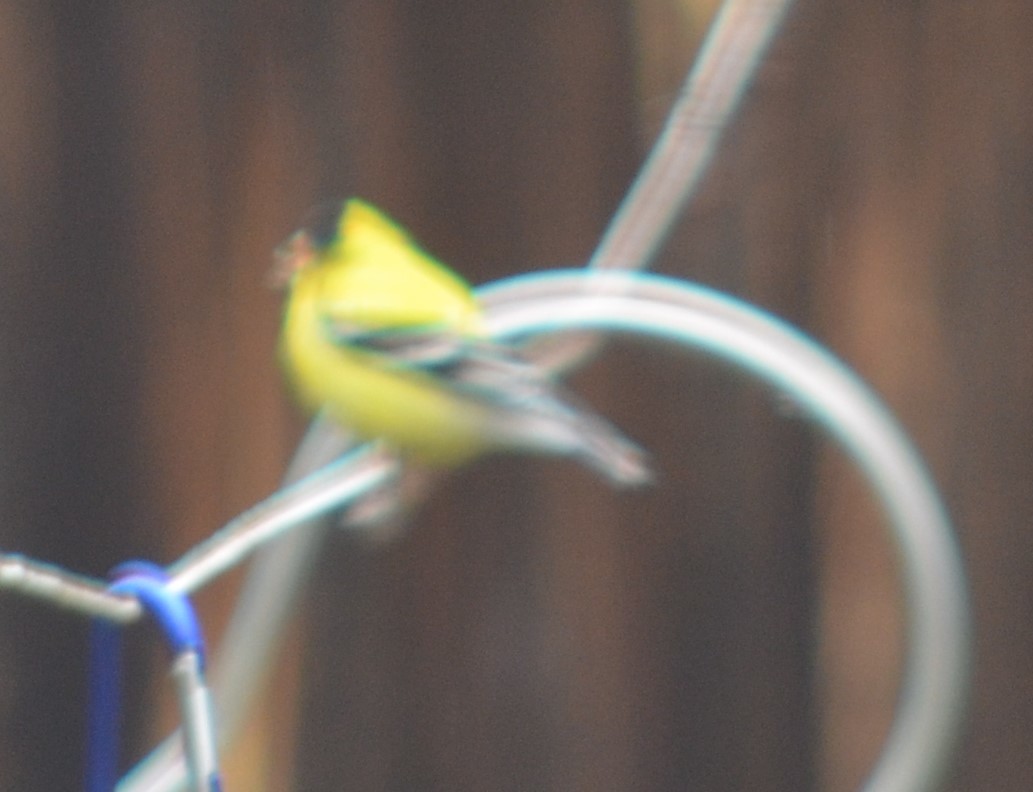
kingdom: Animalia
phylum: Chordata
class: Aves
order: Passeriformes
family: Fringillidae
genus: Spinus
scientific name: Spinus tristis
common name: American goldfinch
